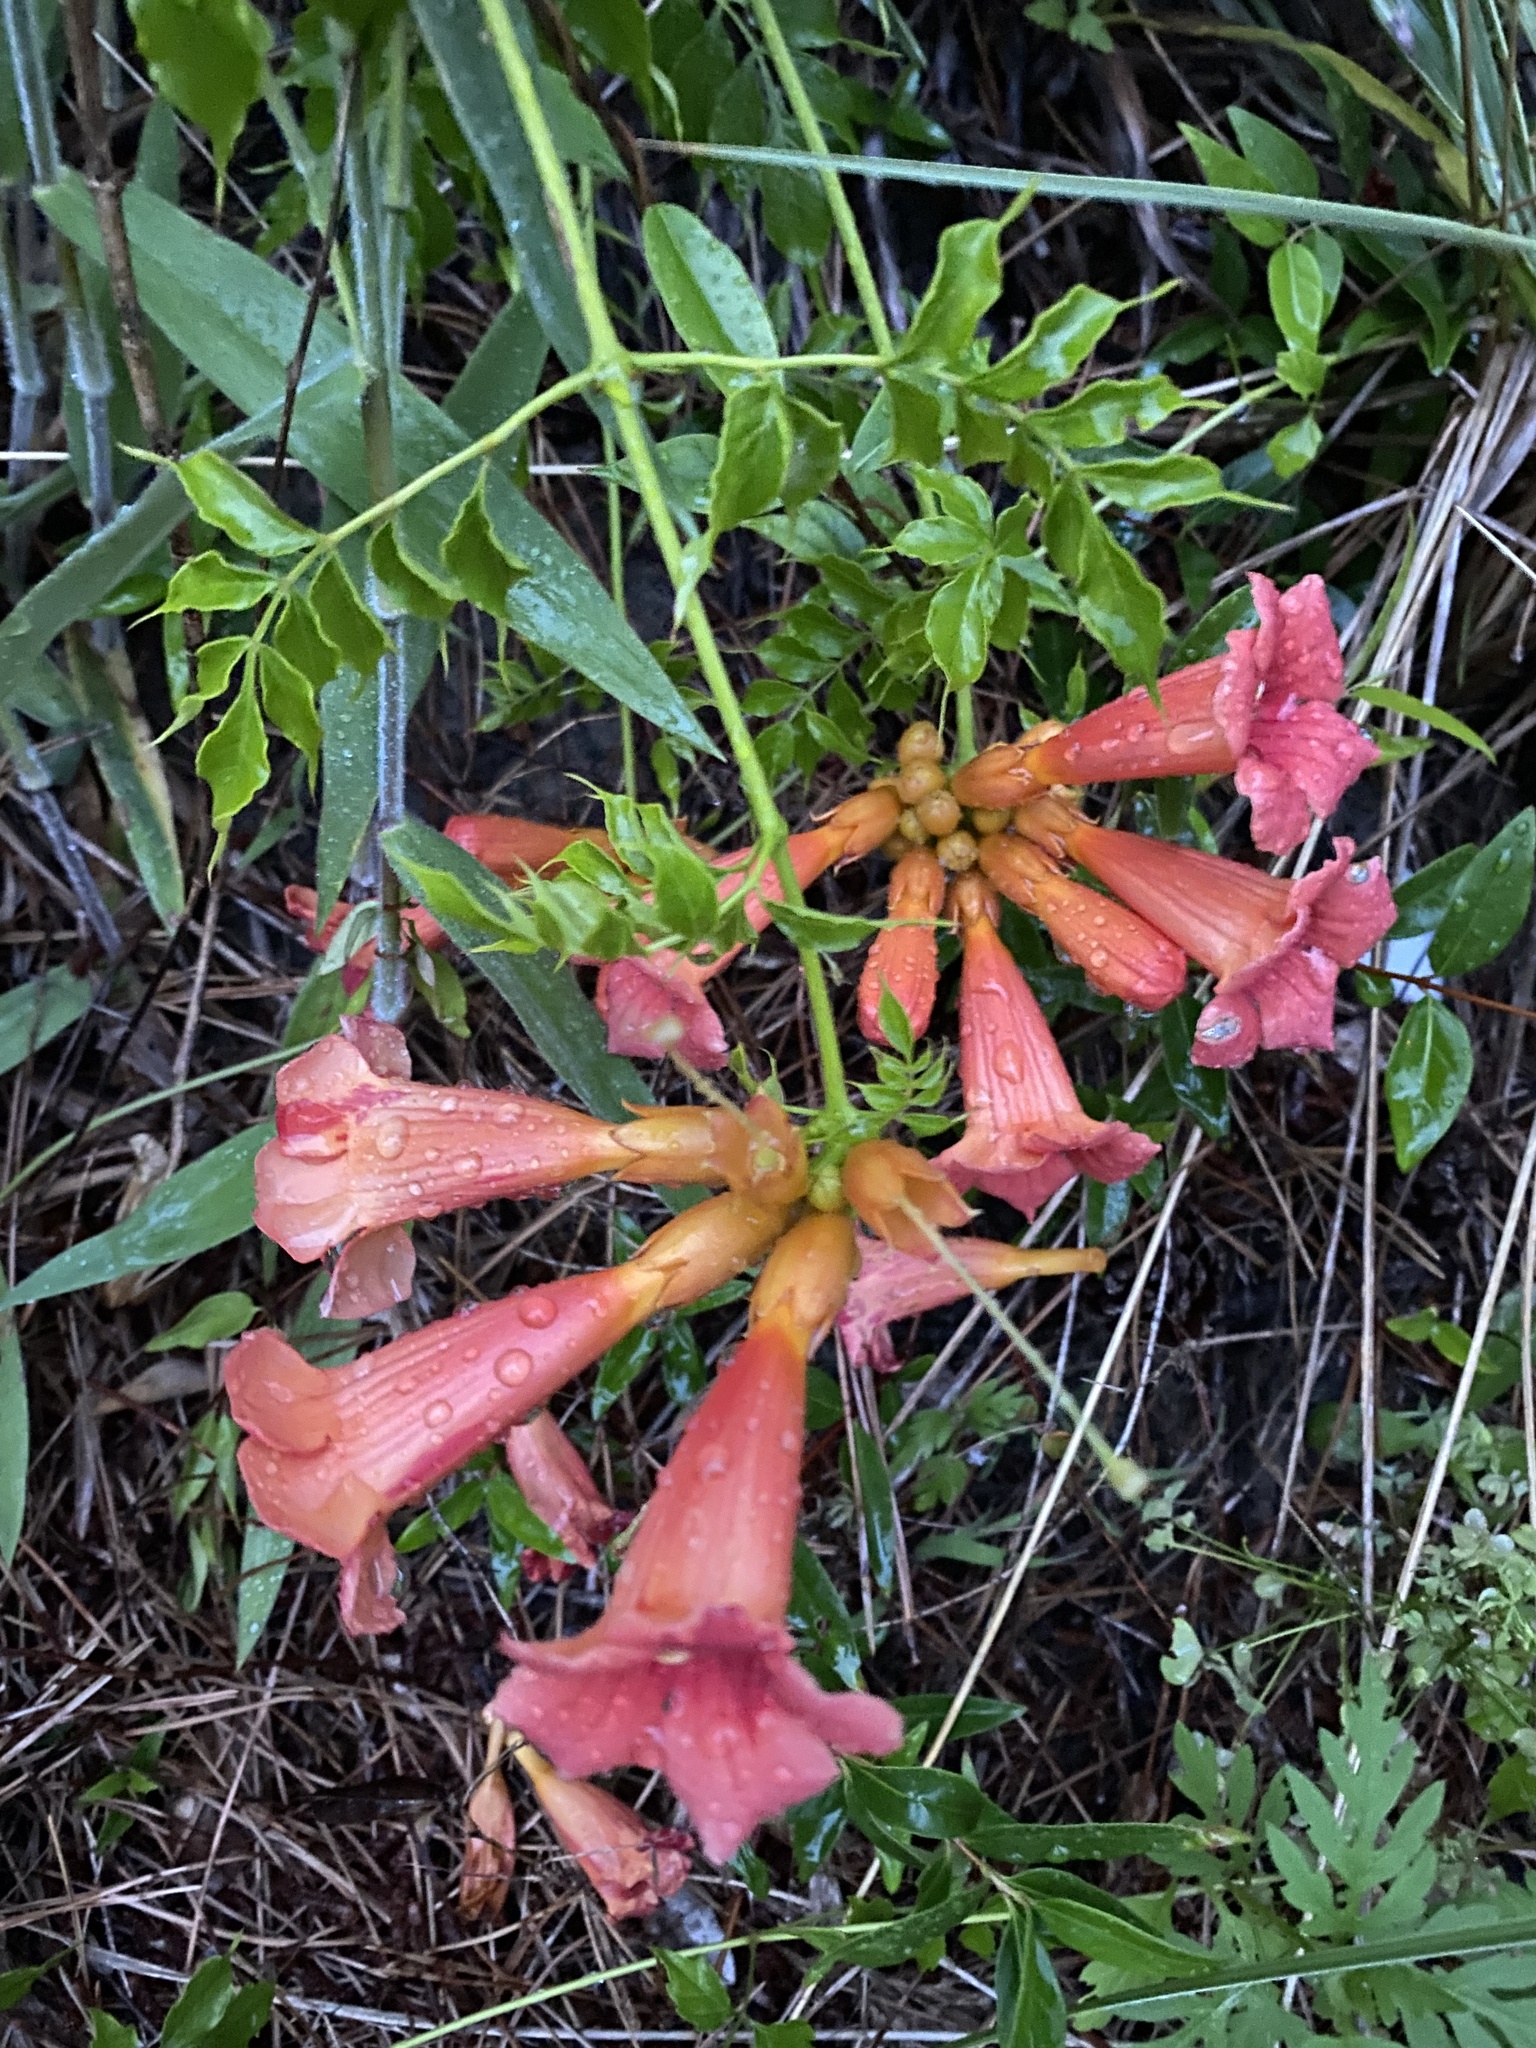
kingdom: Plantae
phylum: Tracheophyta
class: Magnoliopsida
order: Lamiales
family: Bignoniaceae
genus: Campsis
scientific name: Campsis radicans
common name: Trumpet-creeper
